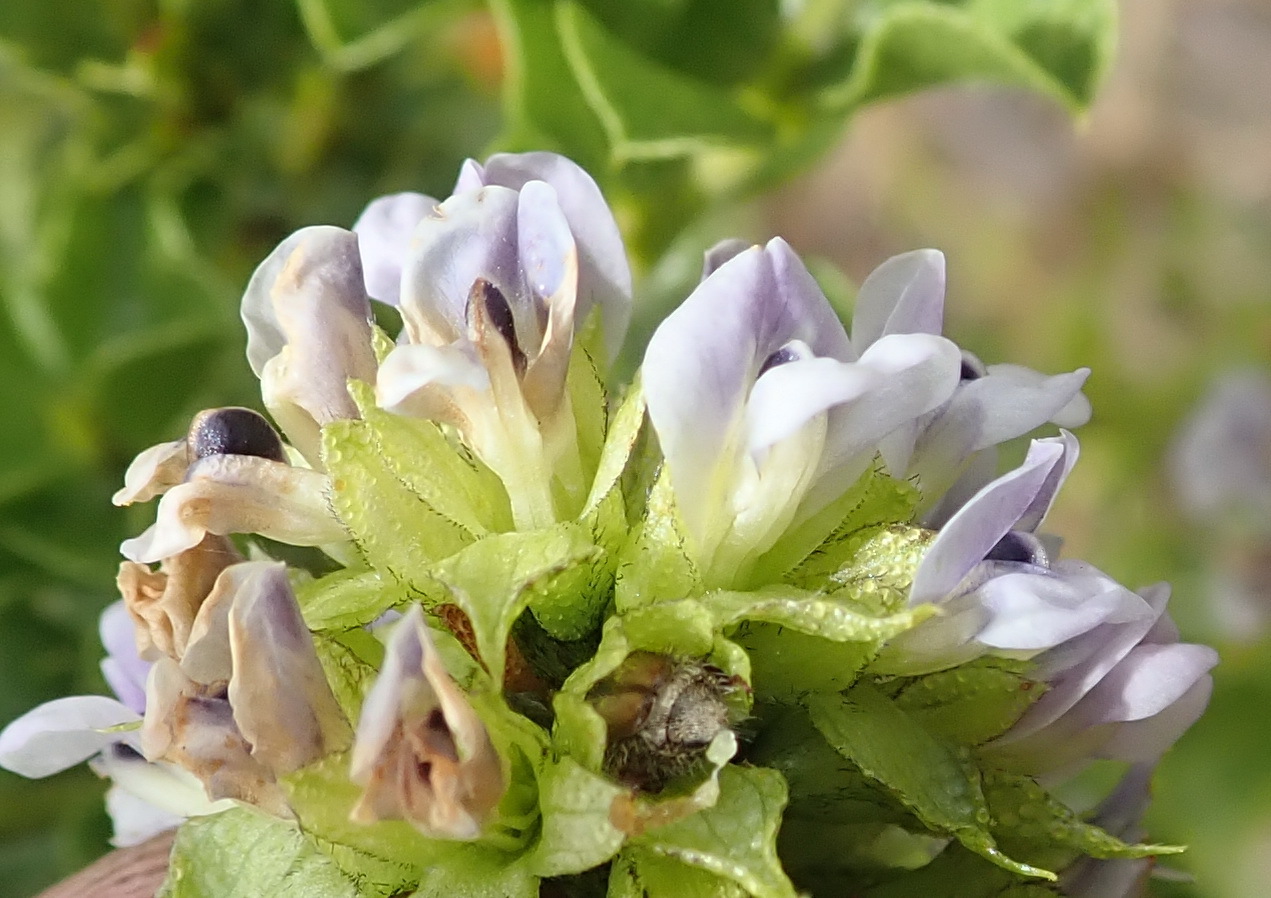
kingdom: Plantae
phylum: Tracheophyta
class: Magnoliopsida
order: Fabales
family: Fabaceae
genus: Psoralea
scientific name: Psoralea acuminata
